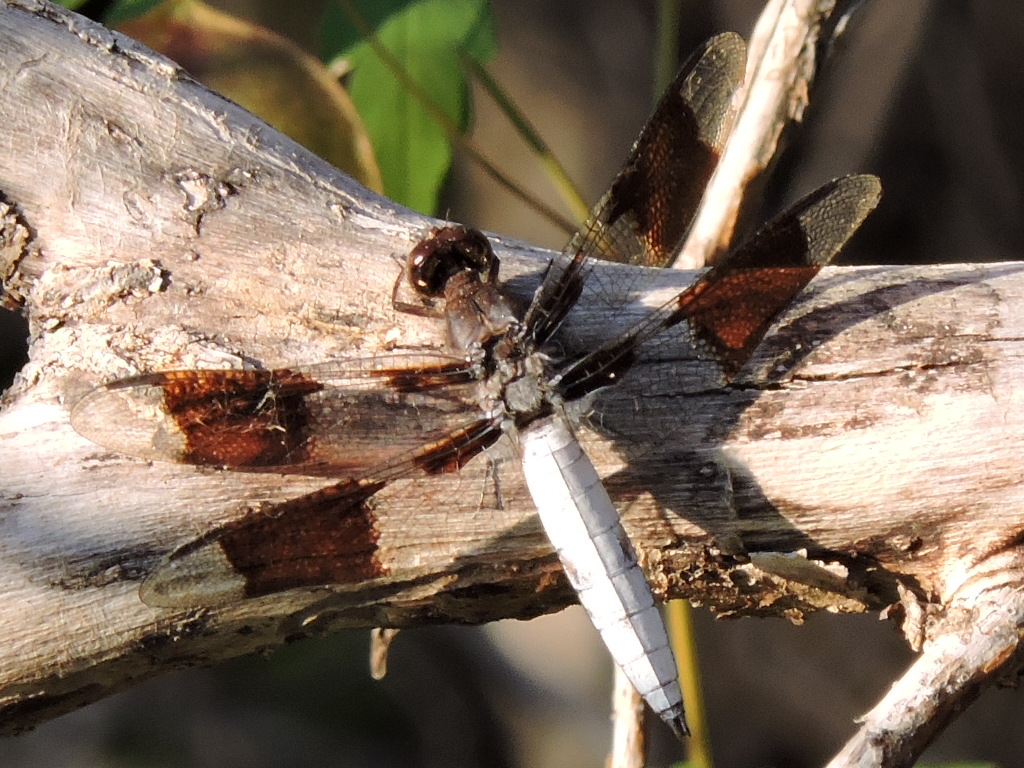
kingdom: Animalia
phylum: Arthropoda
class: Insecta
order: Odonata
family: Libellulidae
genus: Plathemis
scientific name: Plathemis lydia
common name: Common whitetail
